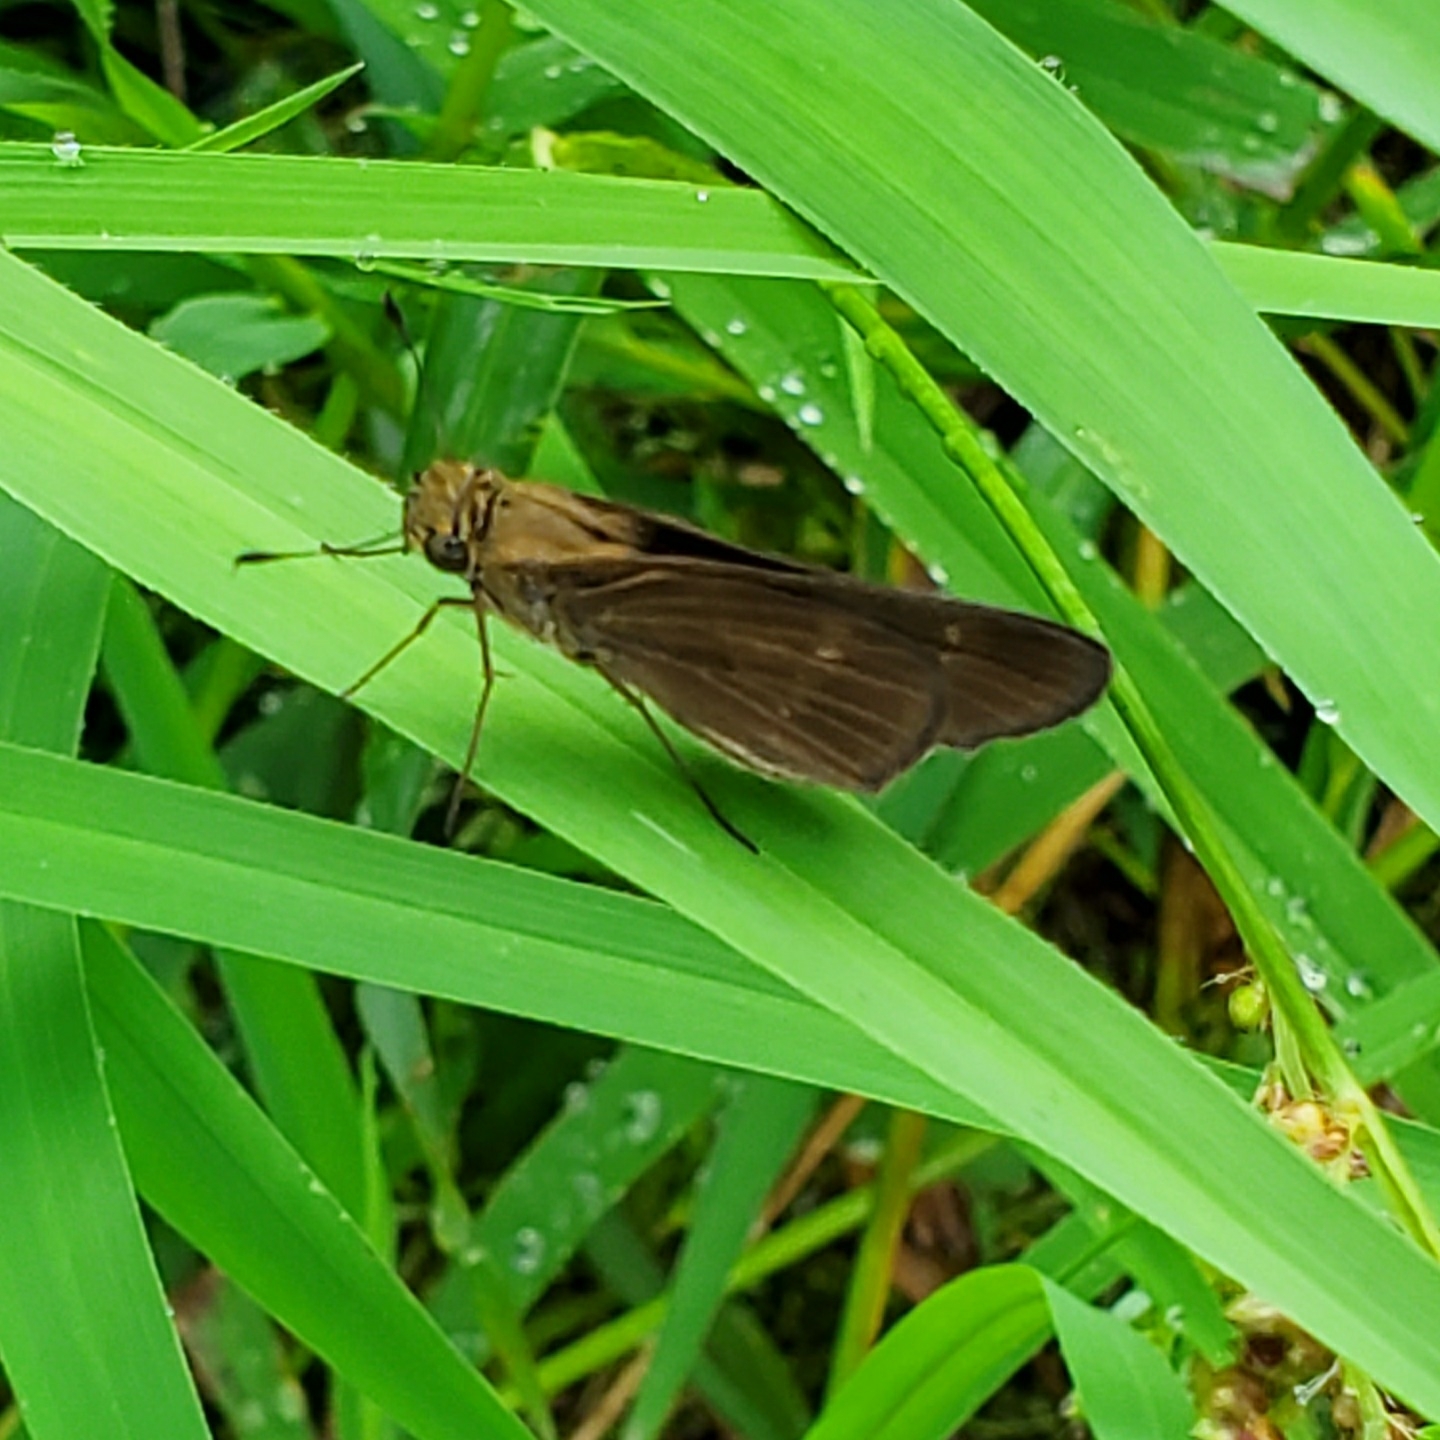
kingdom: Animalia
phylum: Arthropoda
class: Insecta
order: Lepidoptera
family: Hesperiidae
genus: Panoquina
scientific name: Panoquina ocola
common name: Ocola skipper
